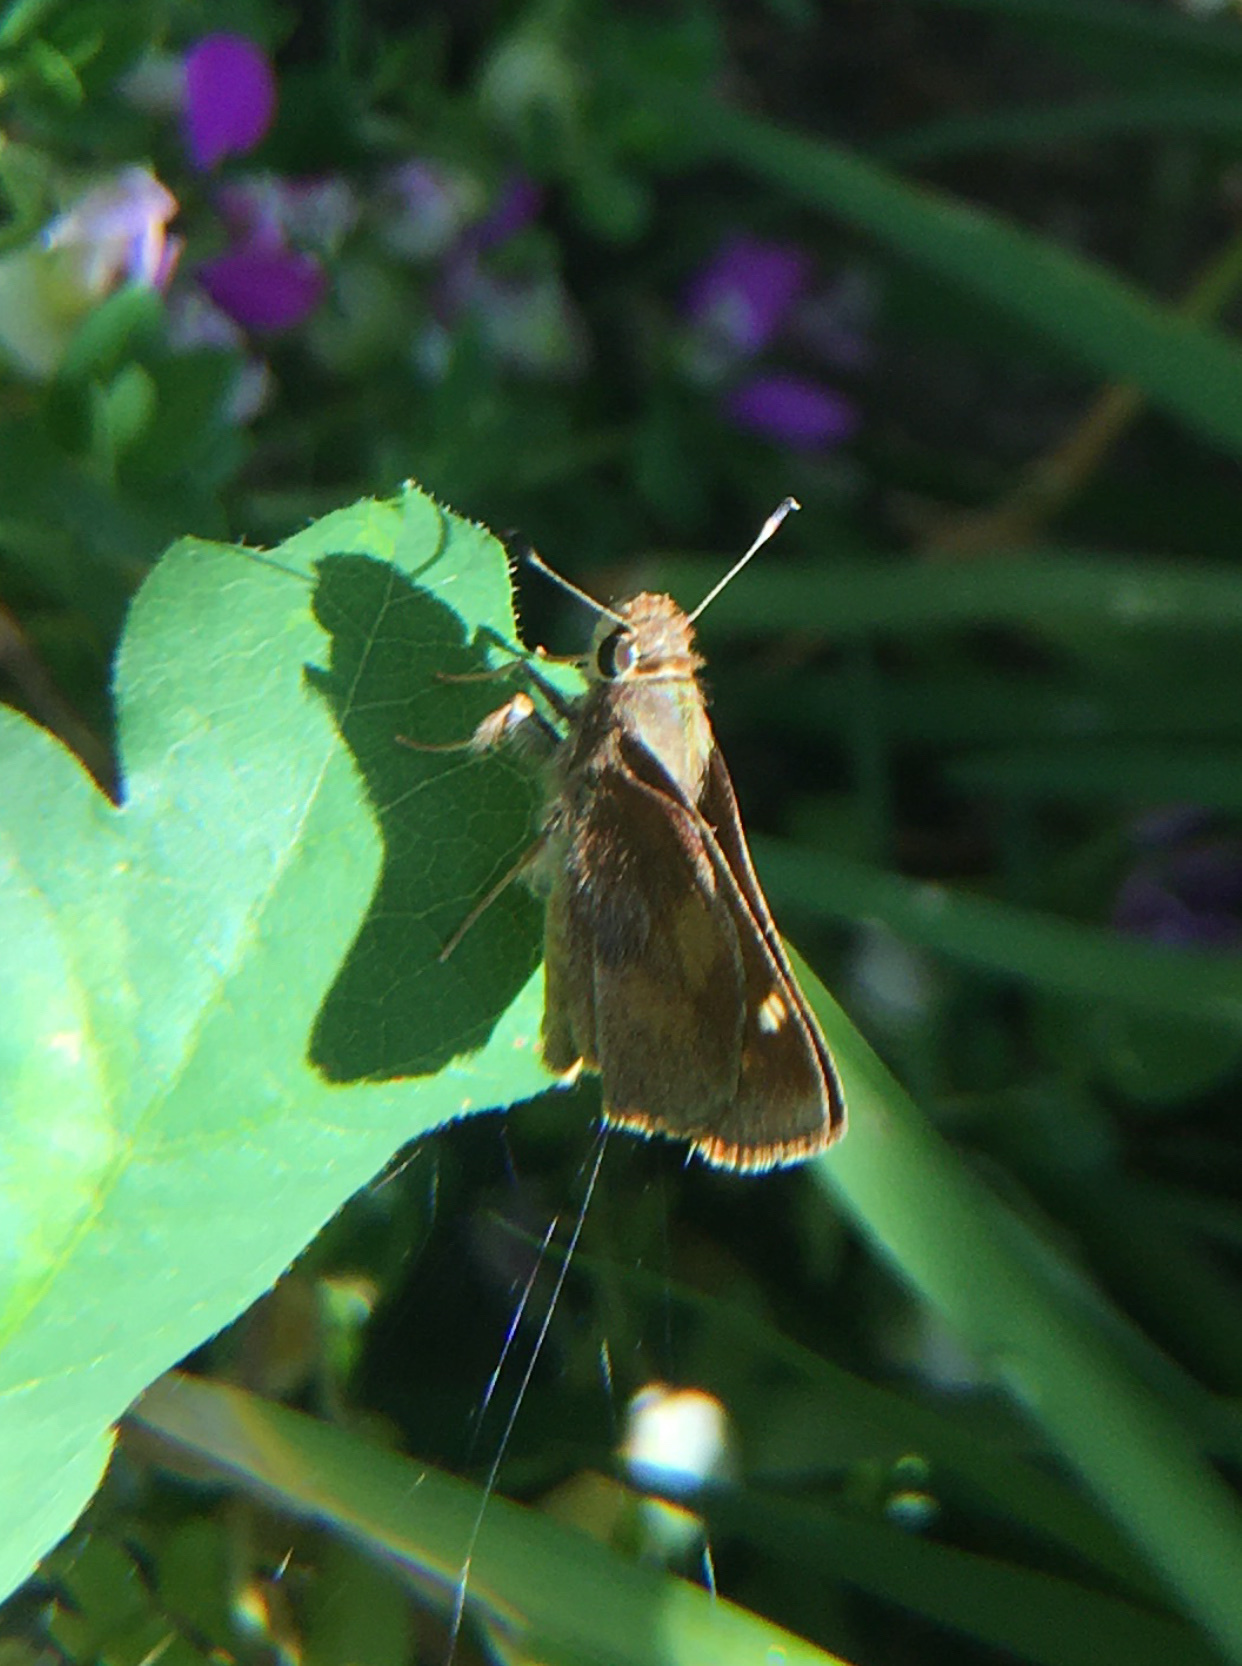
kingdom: Animalia
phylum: Arthropoda
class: Insecta
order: Lepidoptera
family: Hesperiidae
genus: Lon
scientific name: Lon melane
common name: Umber skipper
